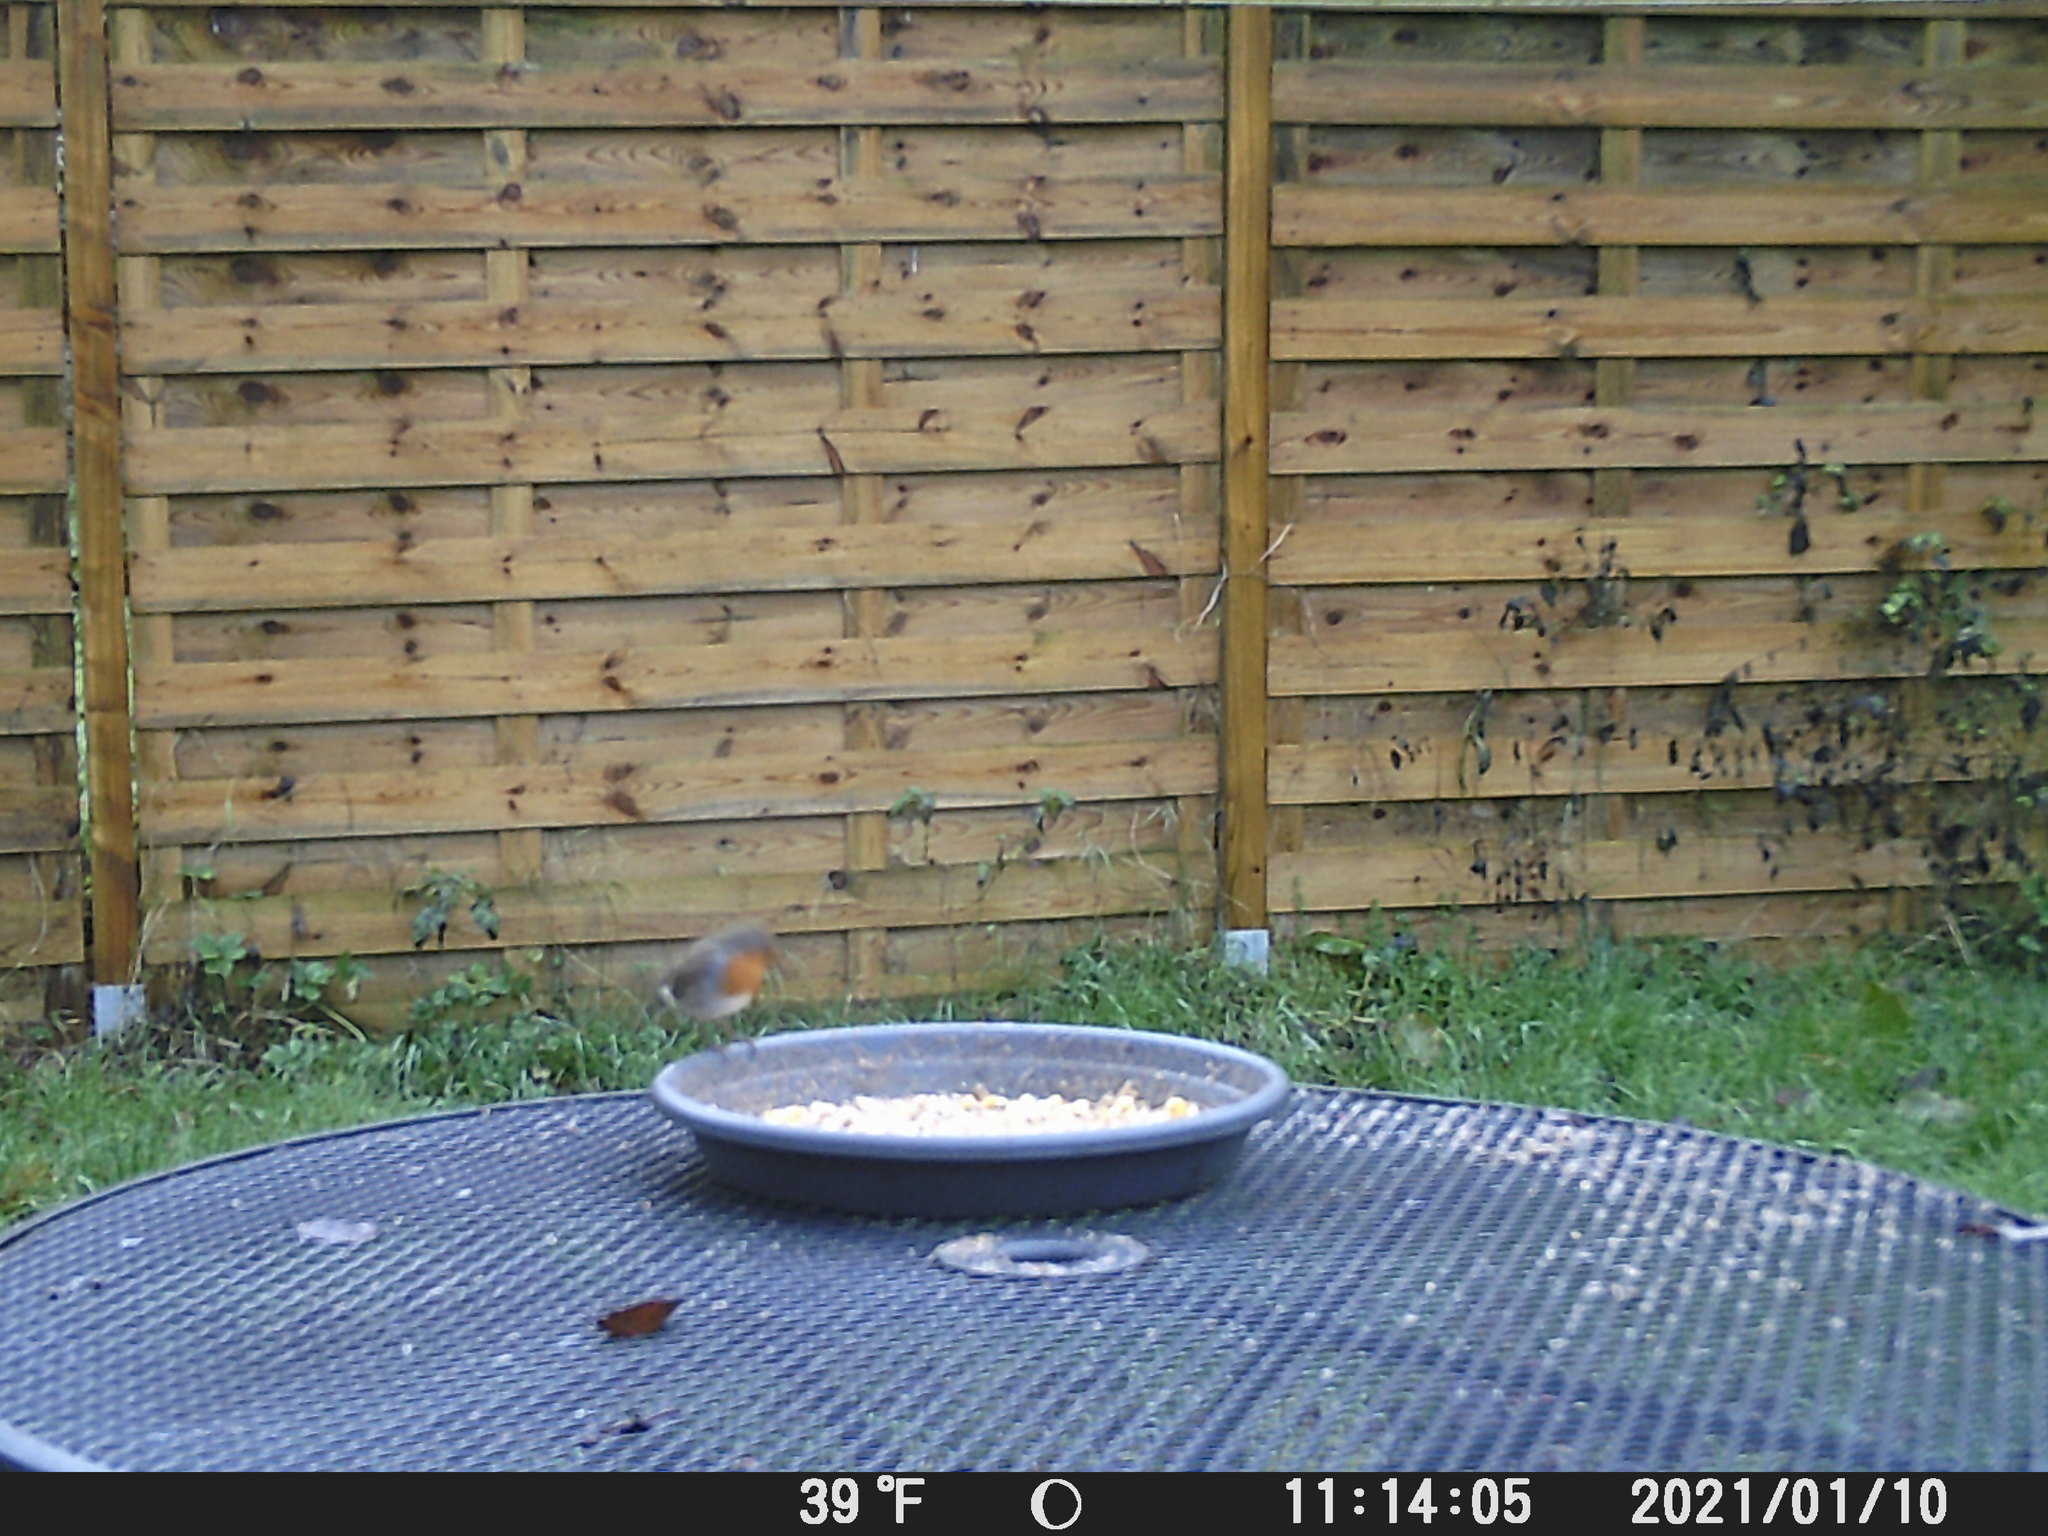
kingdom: Animalia
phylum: Chordata
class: Aves
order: Passeriformes
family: Muscicapidae
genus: Erithacus
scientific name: Erithacus rubecula
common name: European robin
